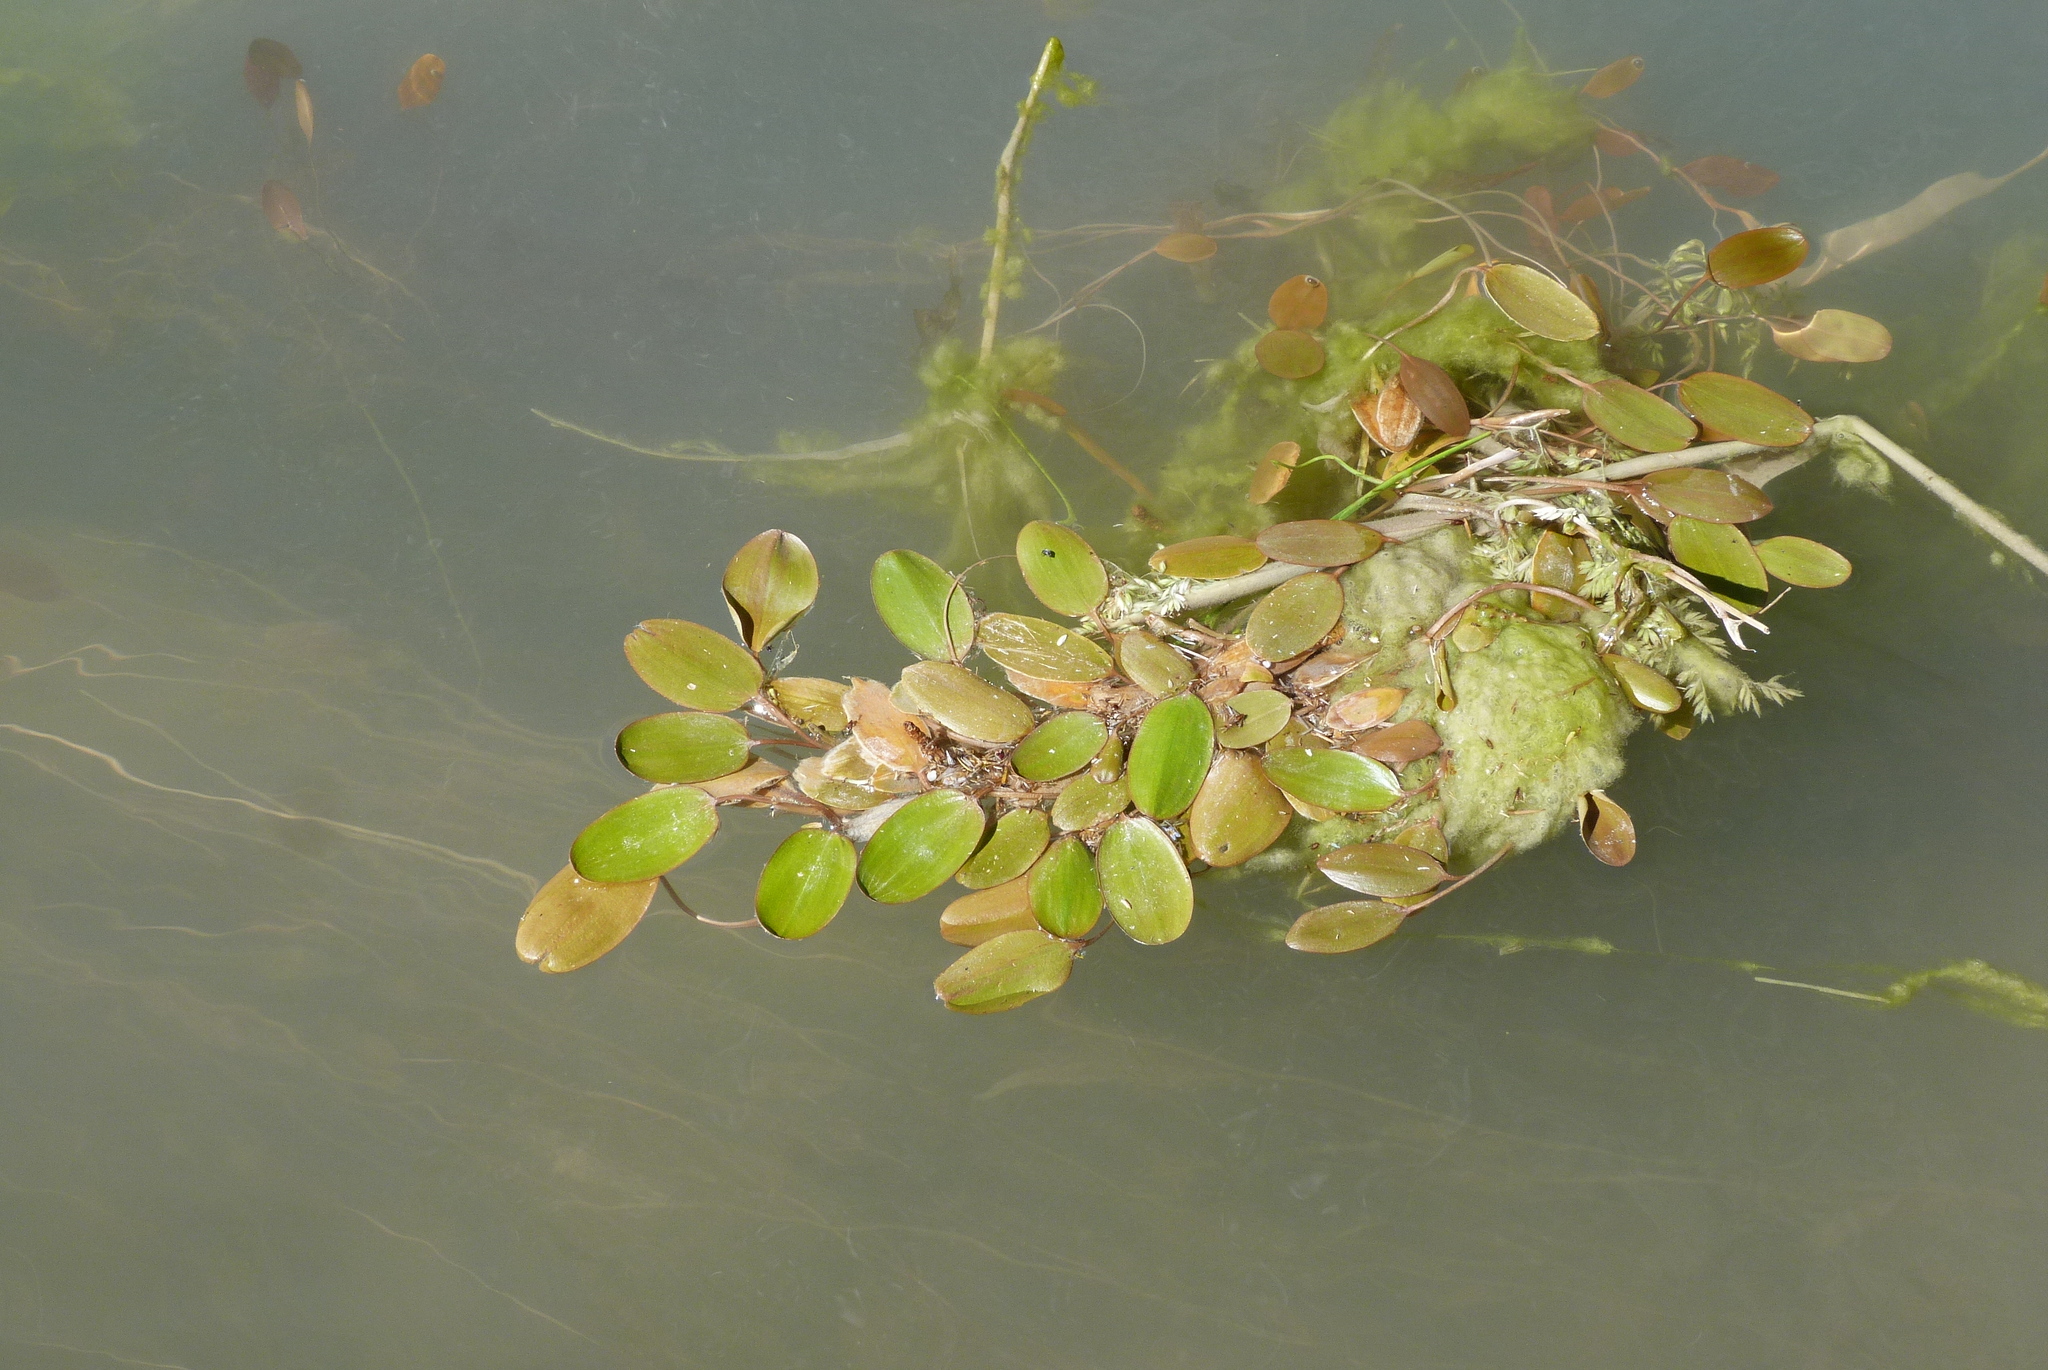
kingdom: Plantae
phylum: Tracheophyta
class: Liliopsida
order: Alismatales
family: Potamogetonaceae
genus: Potamogeton
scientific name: Potamogeton cheesemanii
